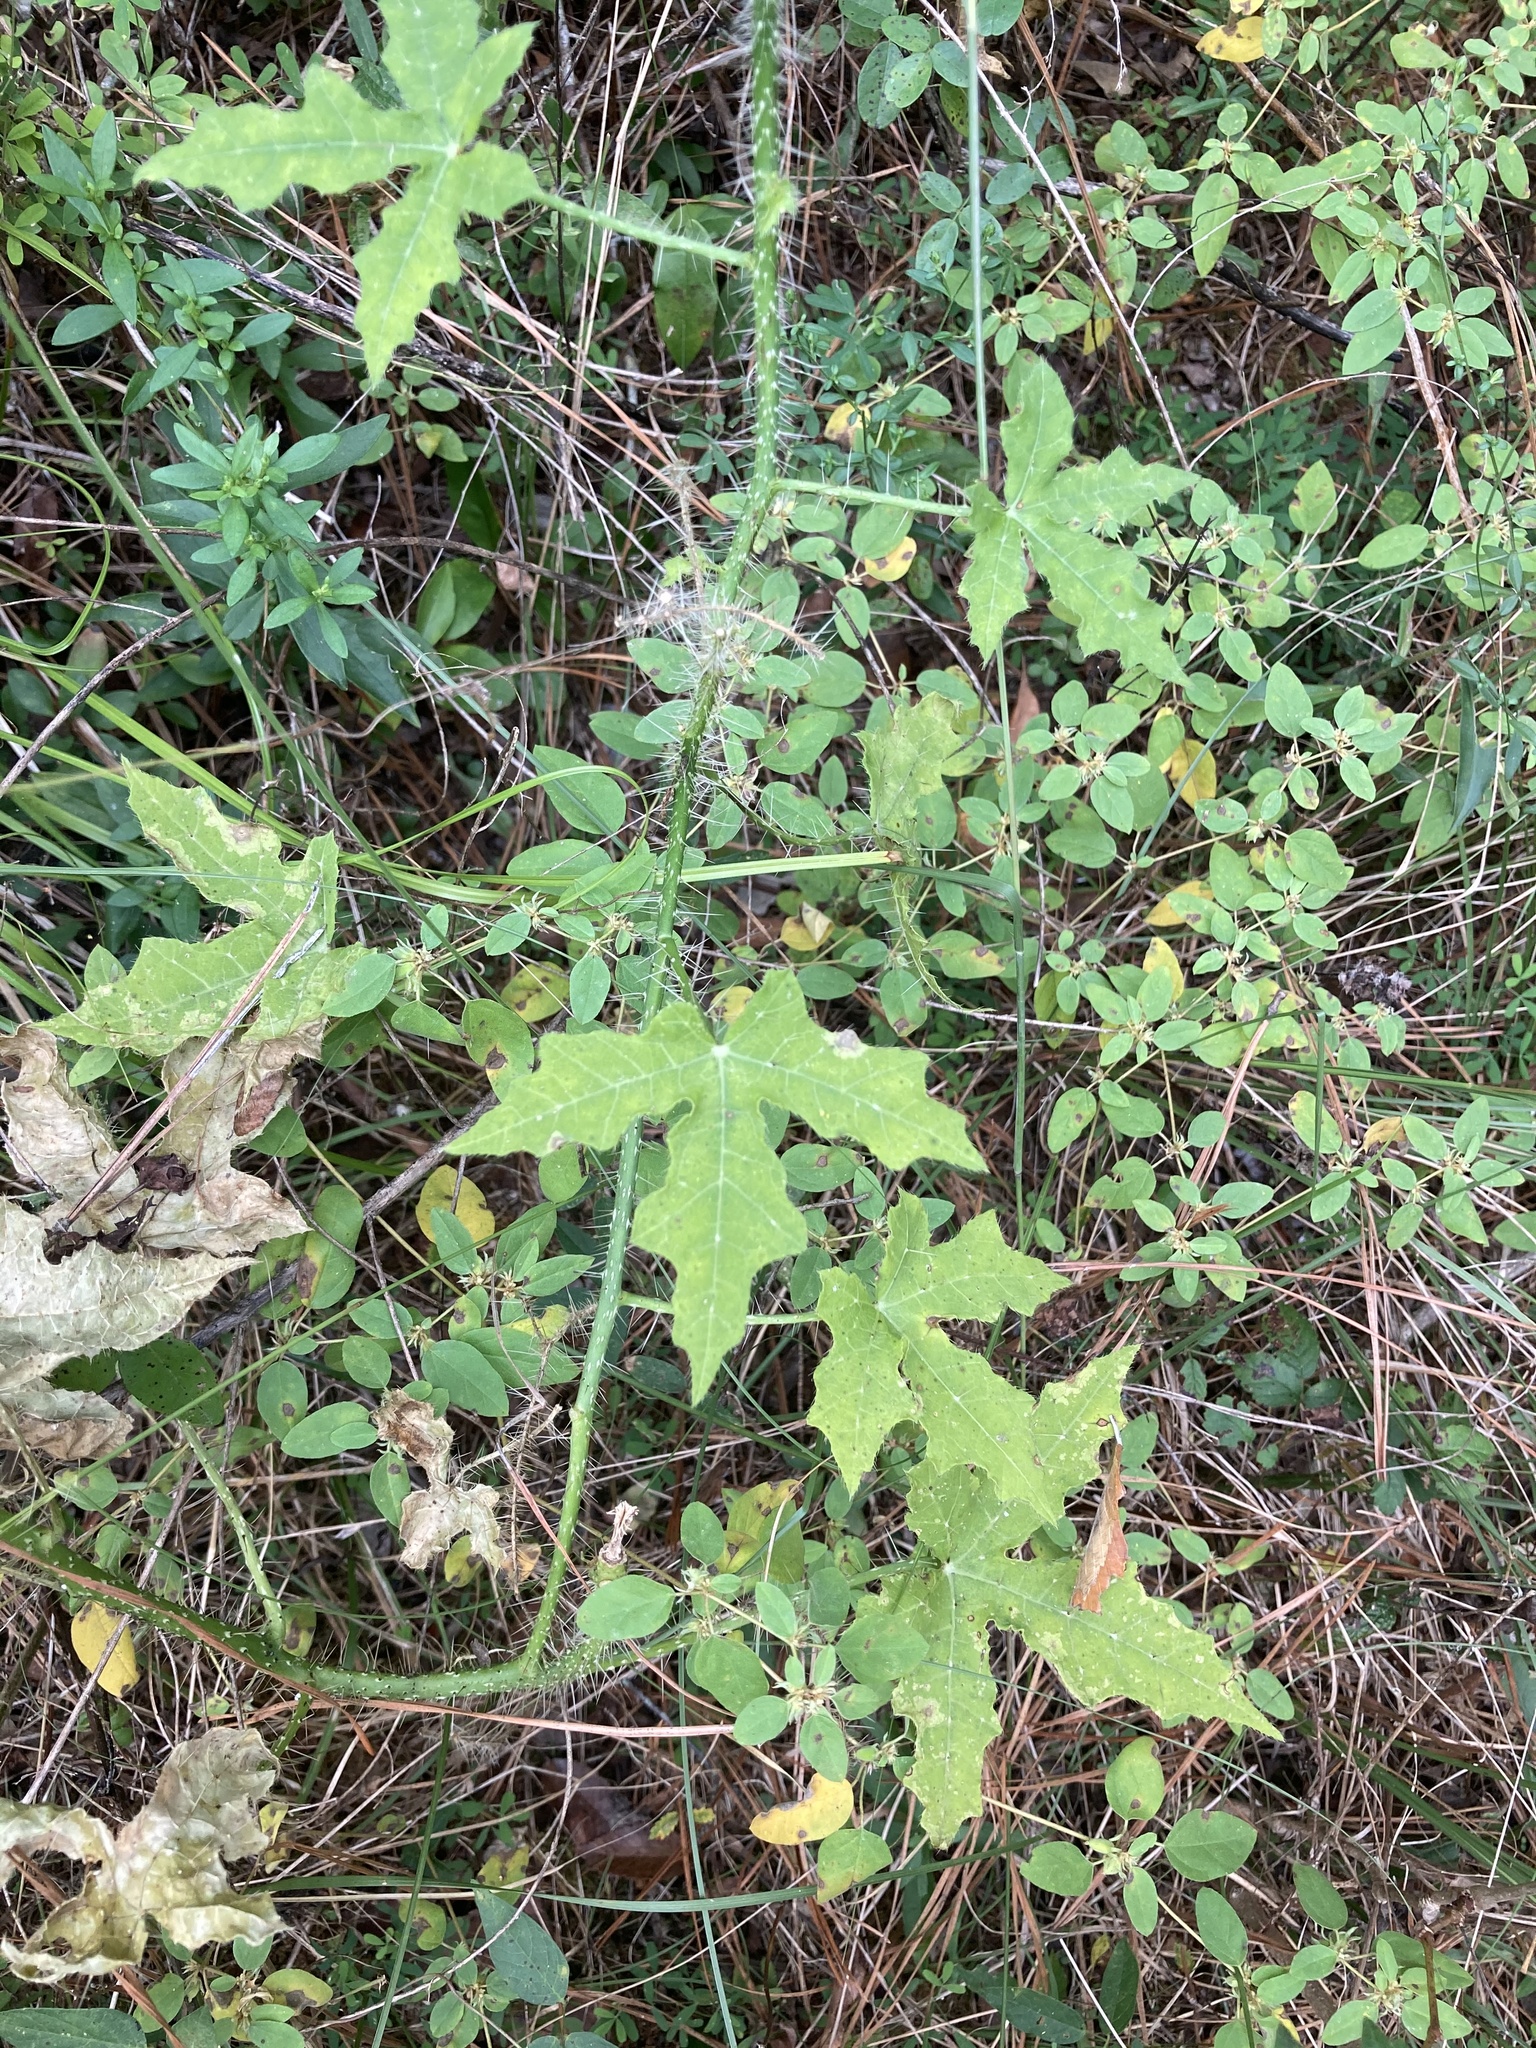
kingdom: Plantae
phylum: Tracheophyta
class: Magnoliopsida
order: Malpighiales
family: Euphorbiaceae
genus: Cnidoscolus
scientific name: Cnidoscolus texanus
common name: Texas bull-nettle
